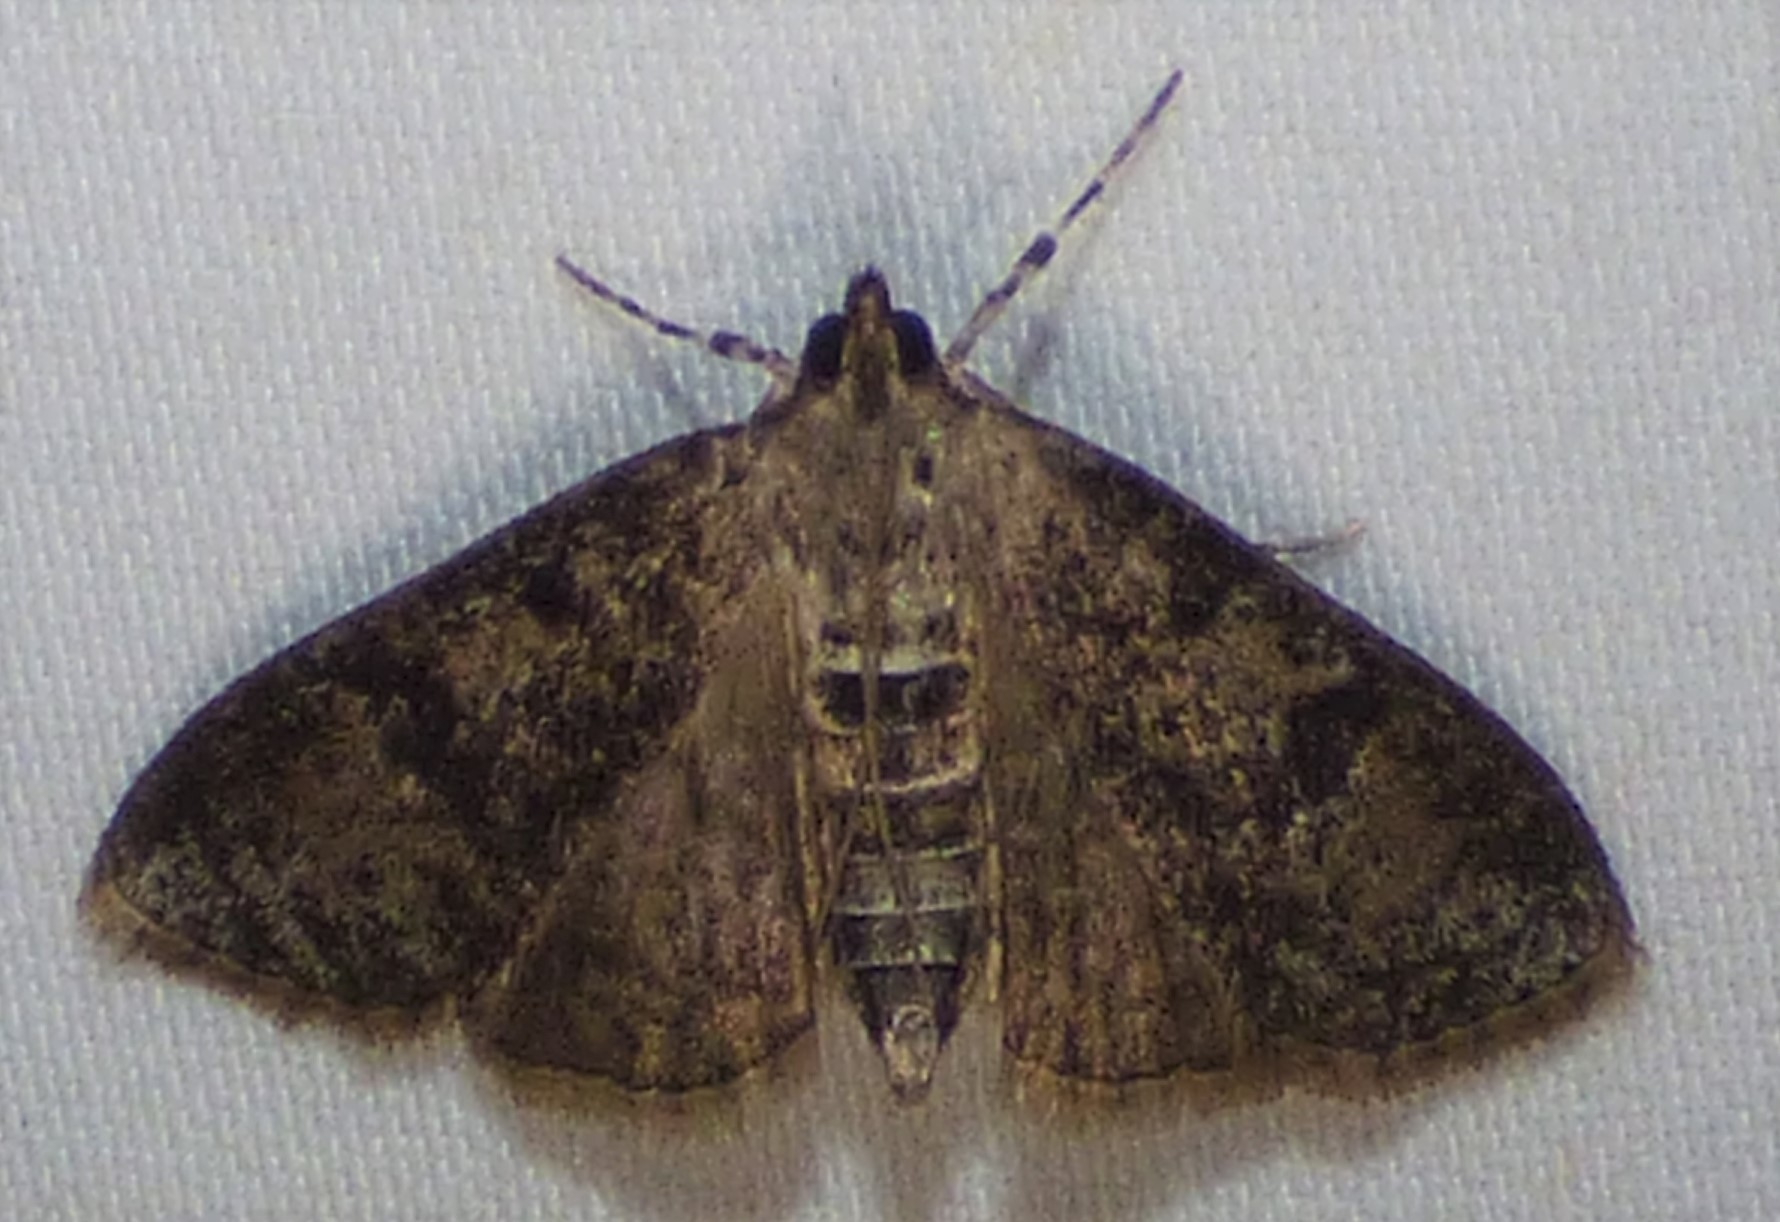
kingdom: Animalia
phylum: Arthropoda
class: Insecta
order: Lepidoptera
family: Crambidae
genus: Palpita
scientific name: Palpita magniferalis
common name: Splendid palpita moth
